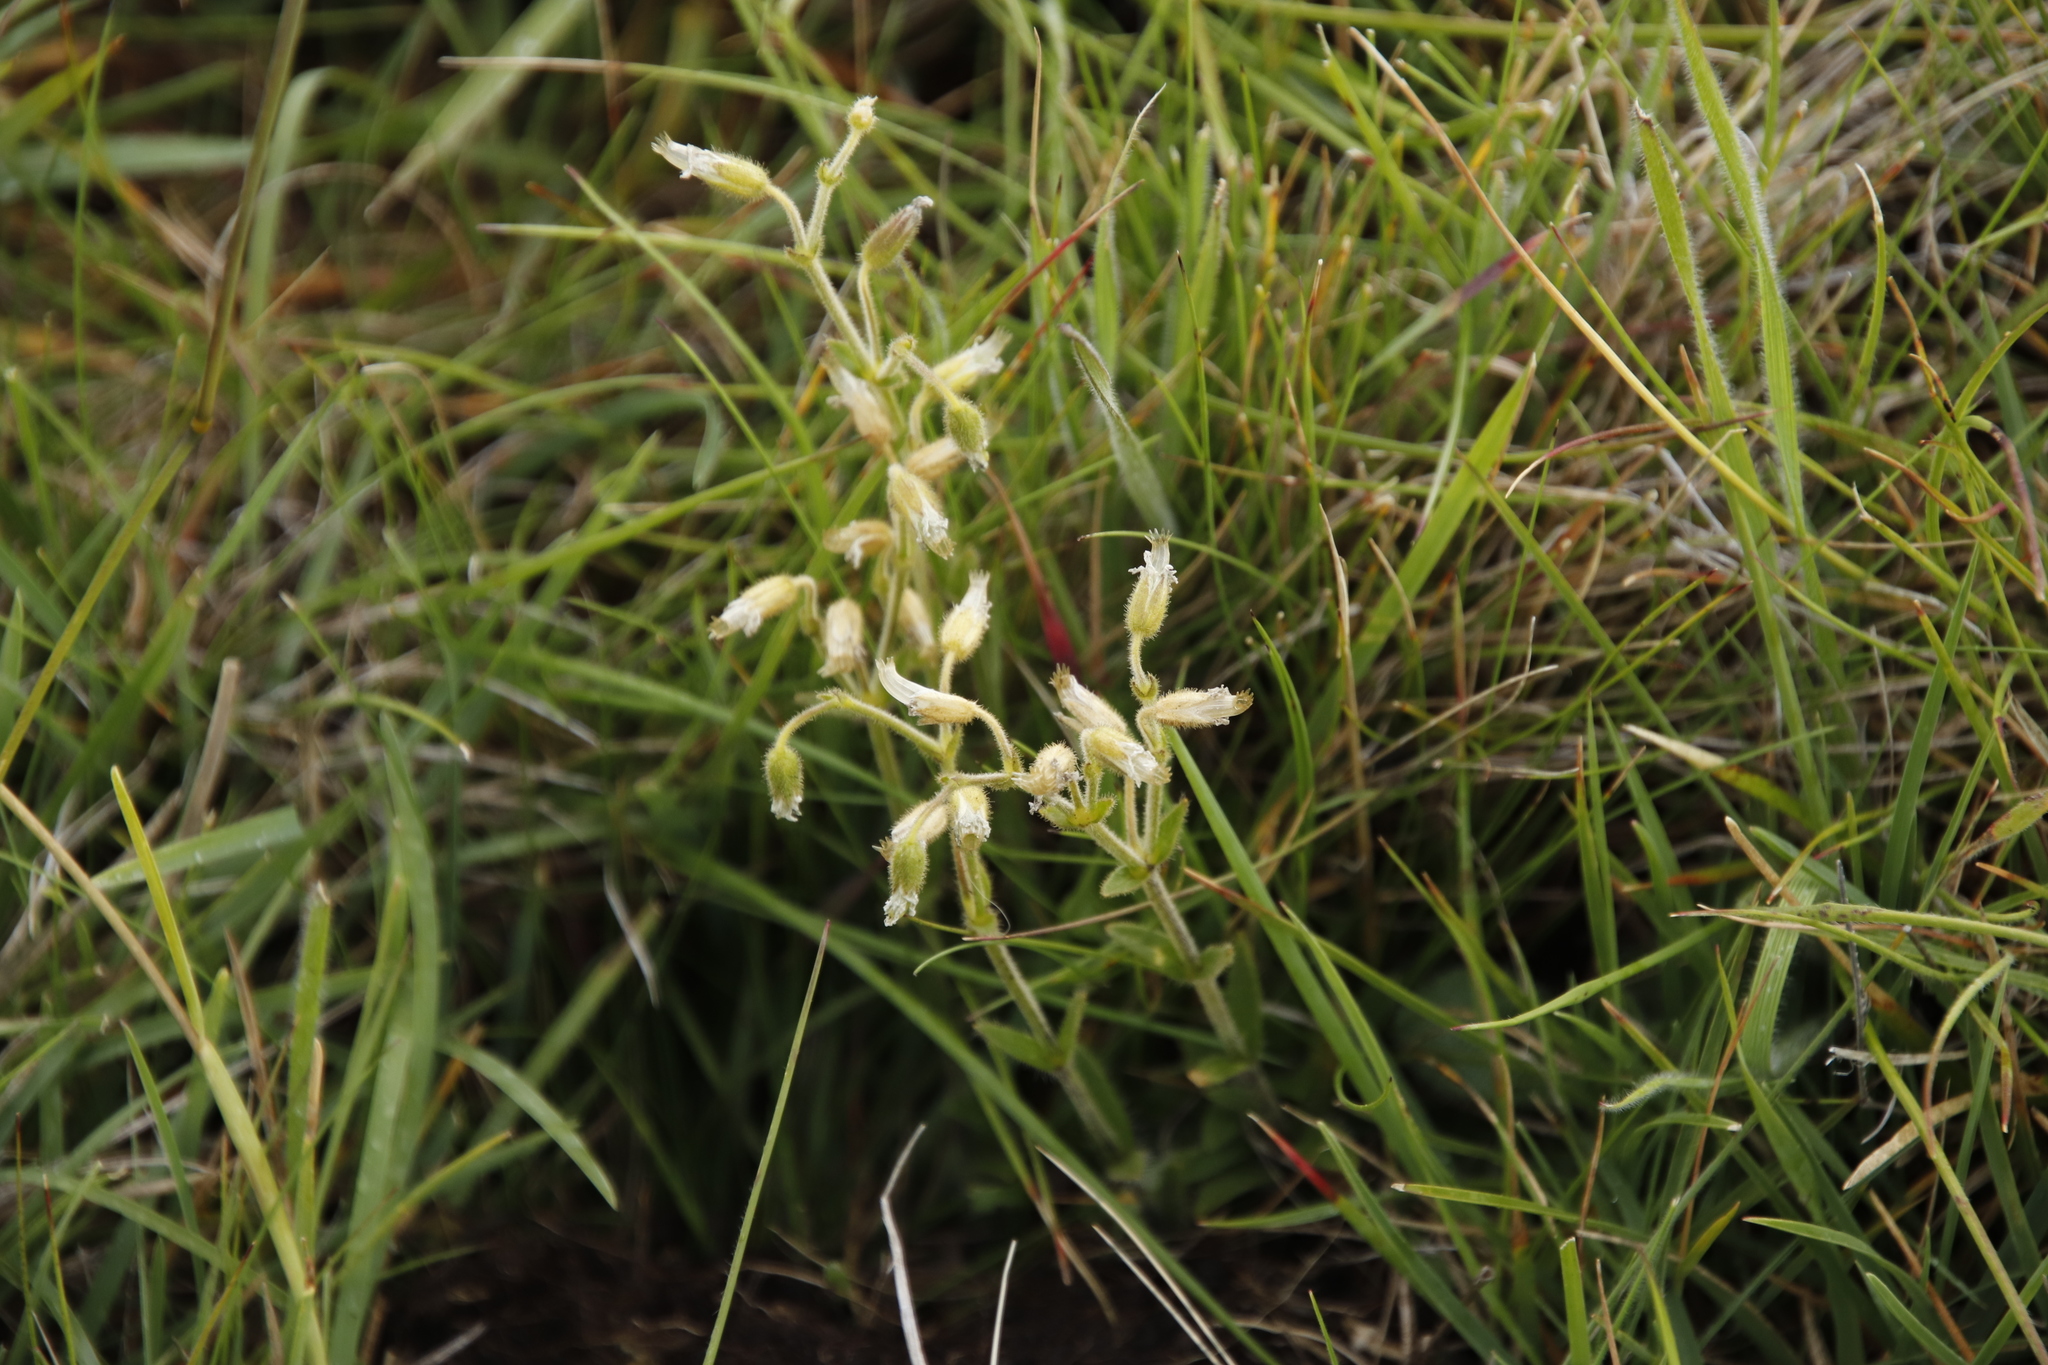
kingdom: Plantae
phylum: Tracheophyta
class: Magnoliopsida
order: Caryophyllales
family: Caryophyllaceae
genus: Cerastium
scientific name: Cerastium arabidis
